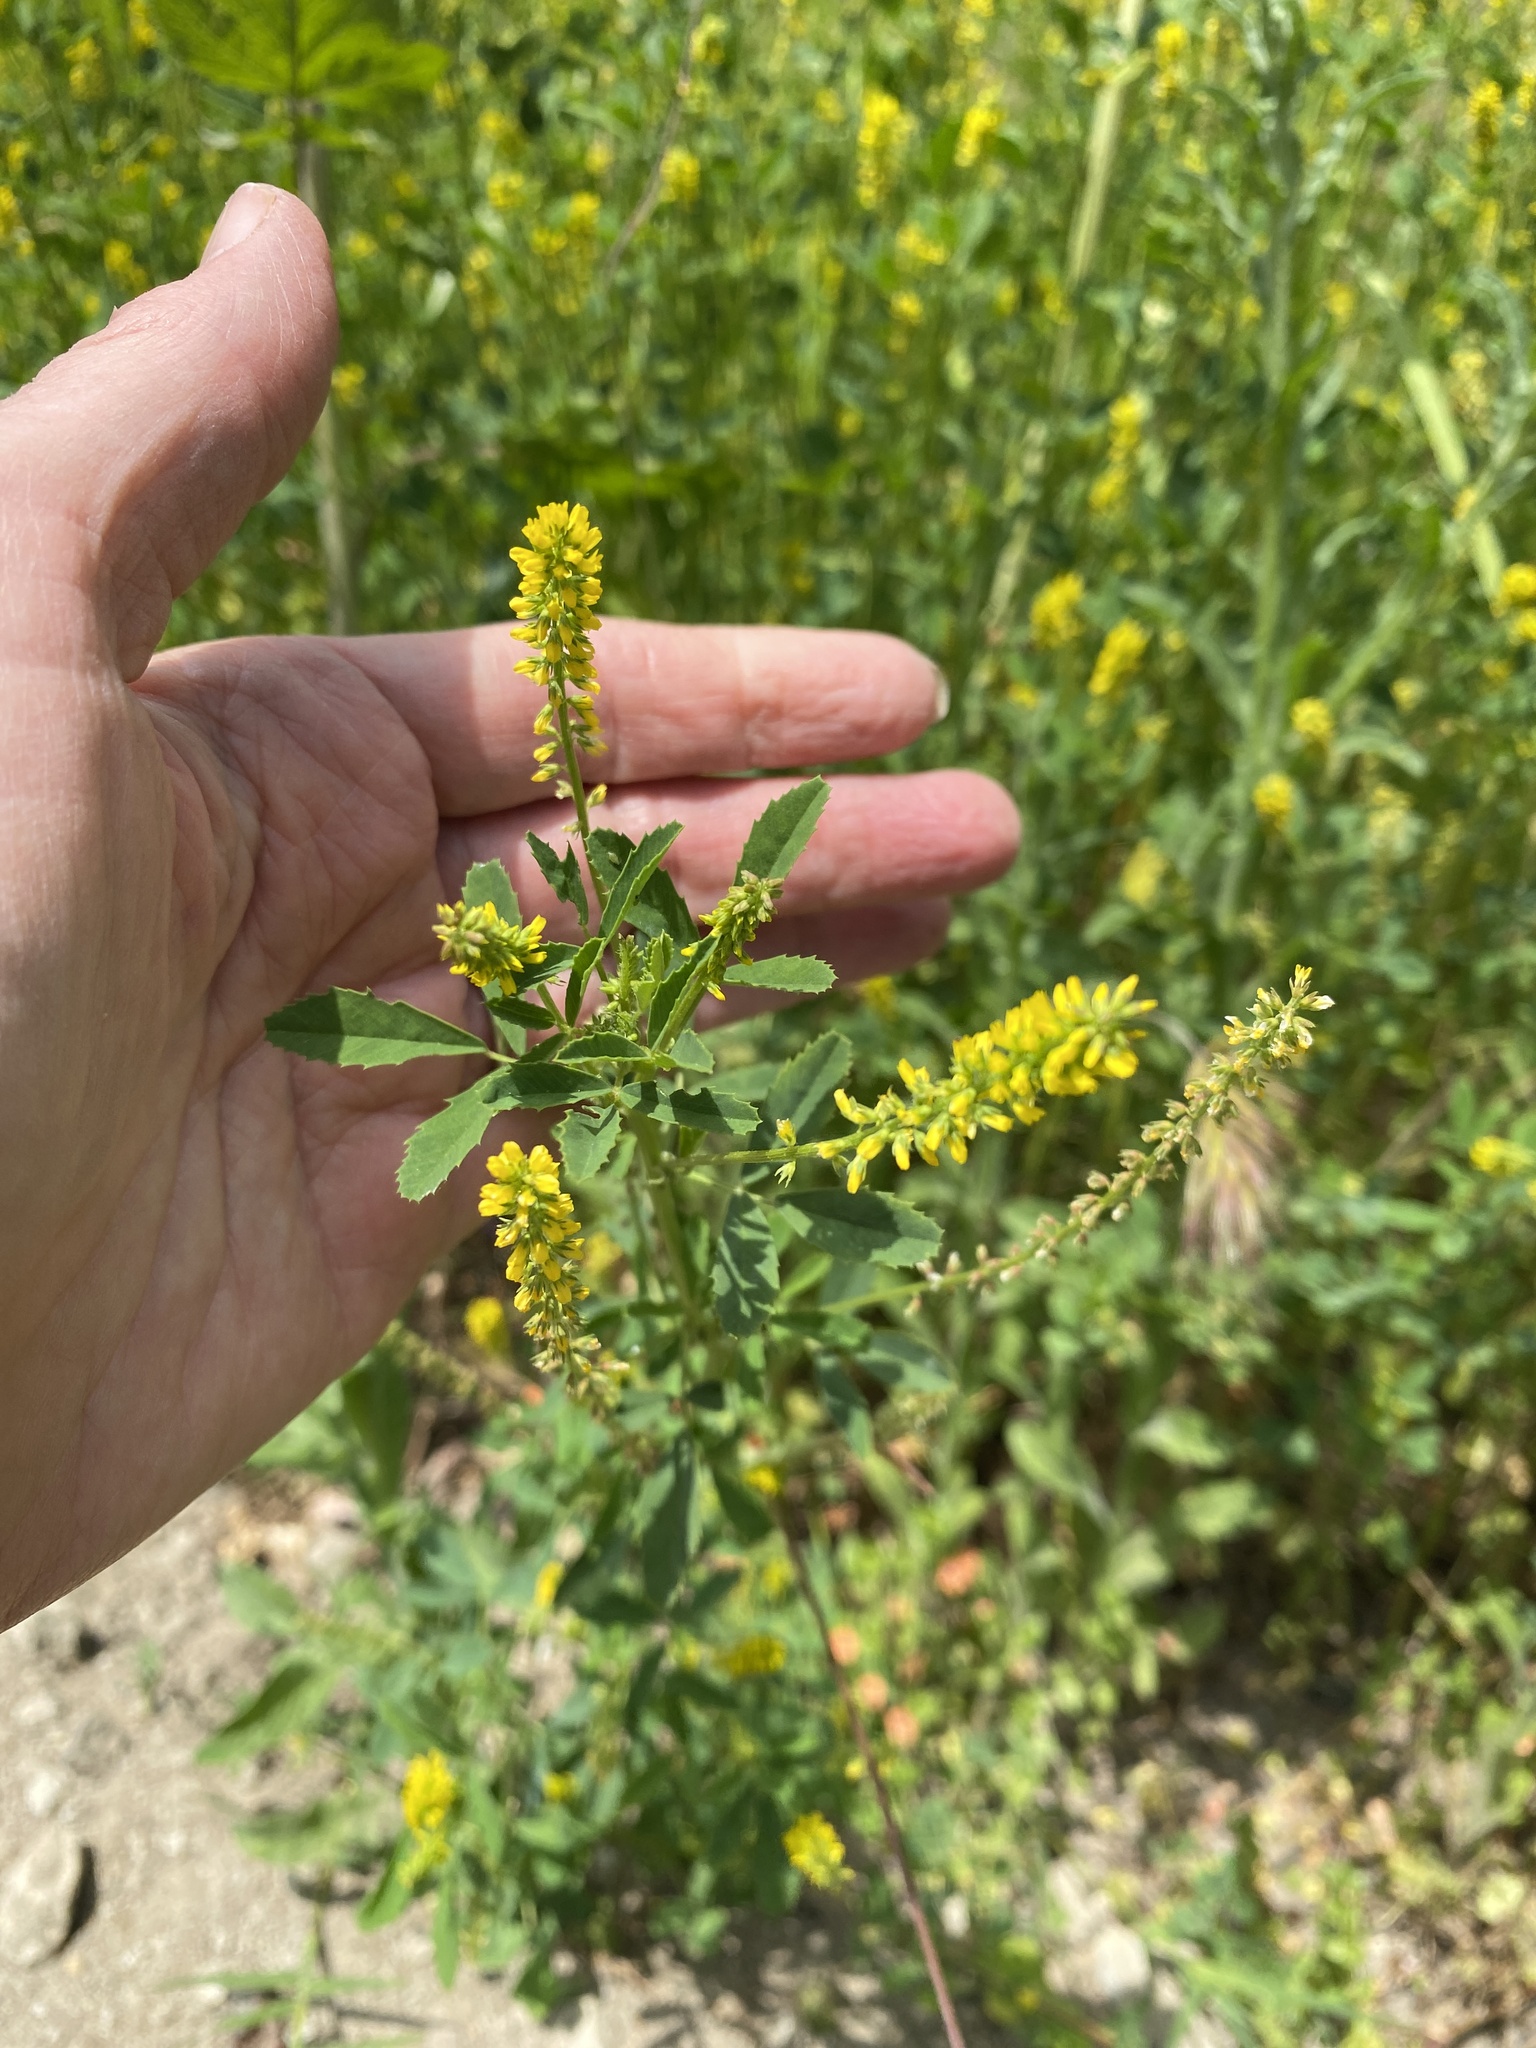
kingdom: Plantae
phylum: Tracheophyta
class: Magnoliopsida
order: Fabales
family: Fabaceae
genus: Melilotus
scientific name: Melilotus indicus
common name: Small melilot
